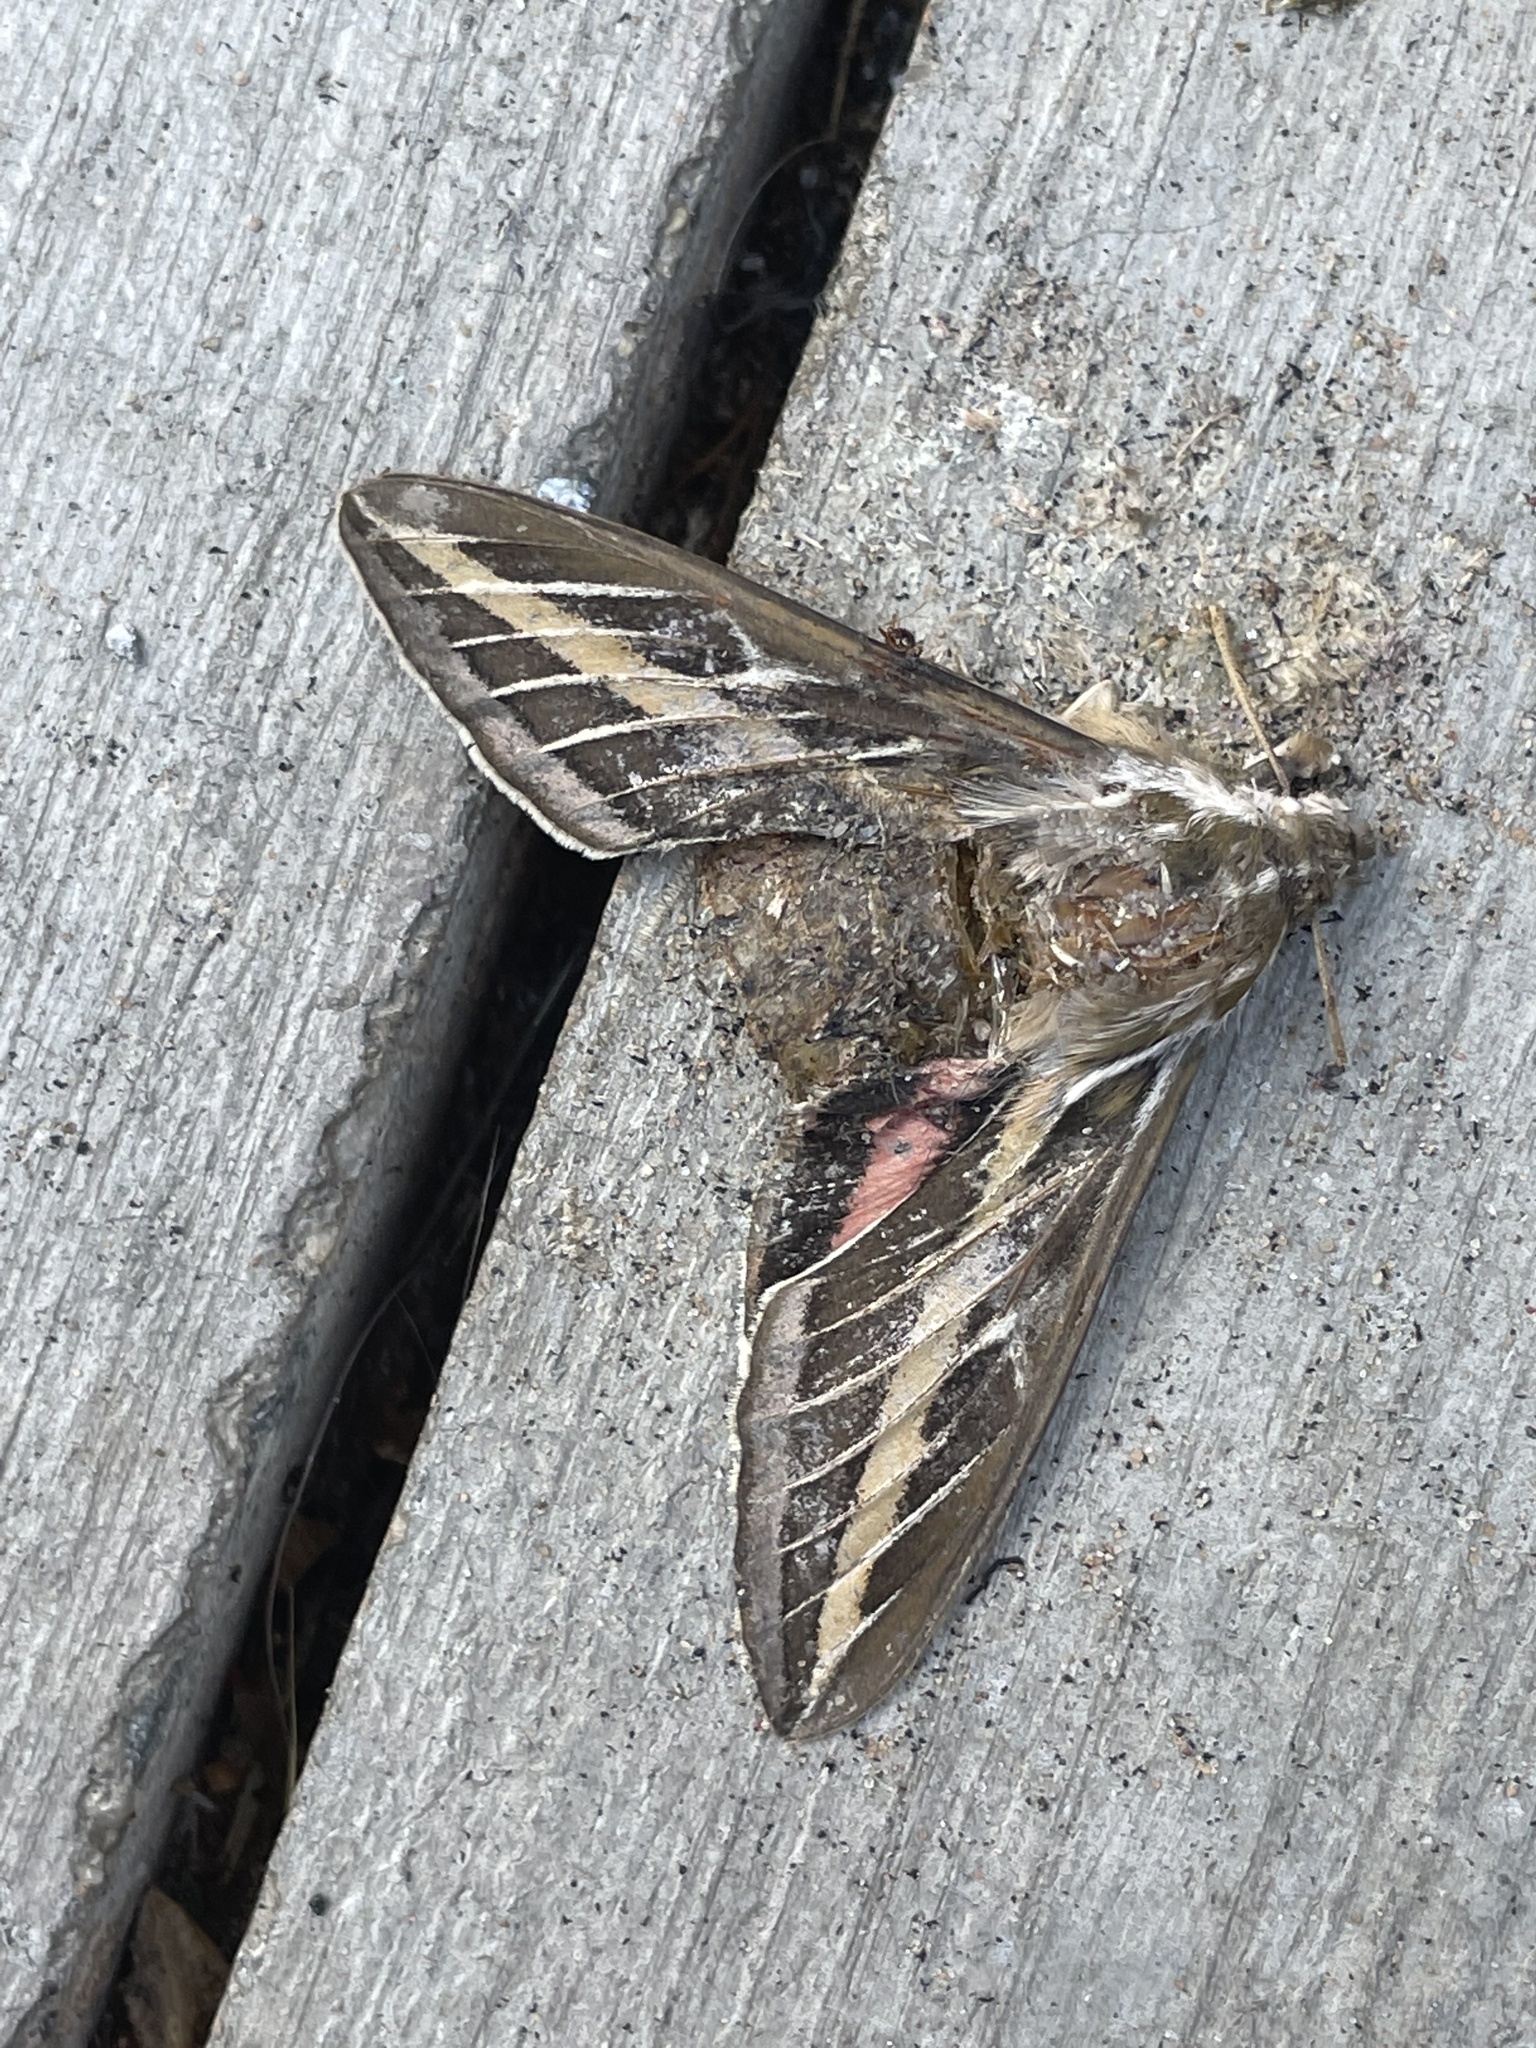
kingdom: Animalia
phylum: Arthropoda
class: Insecta
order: Lepidoptera
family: Sphingidae
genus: Hyles
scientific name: Hyles lineata
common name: White-lined sphinx
